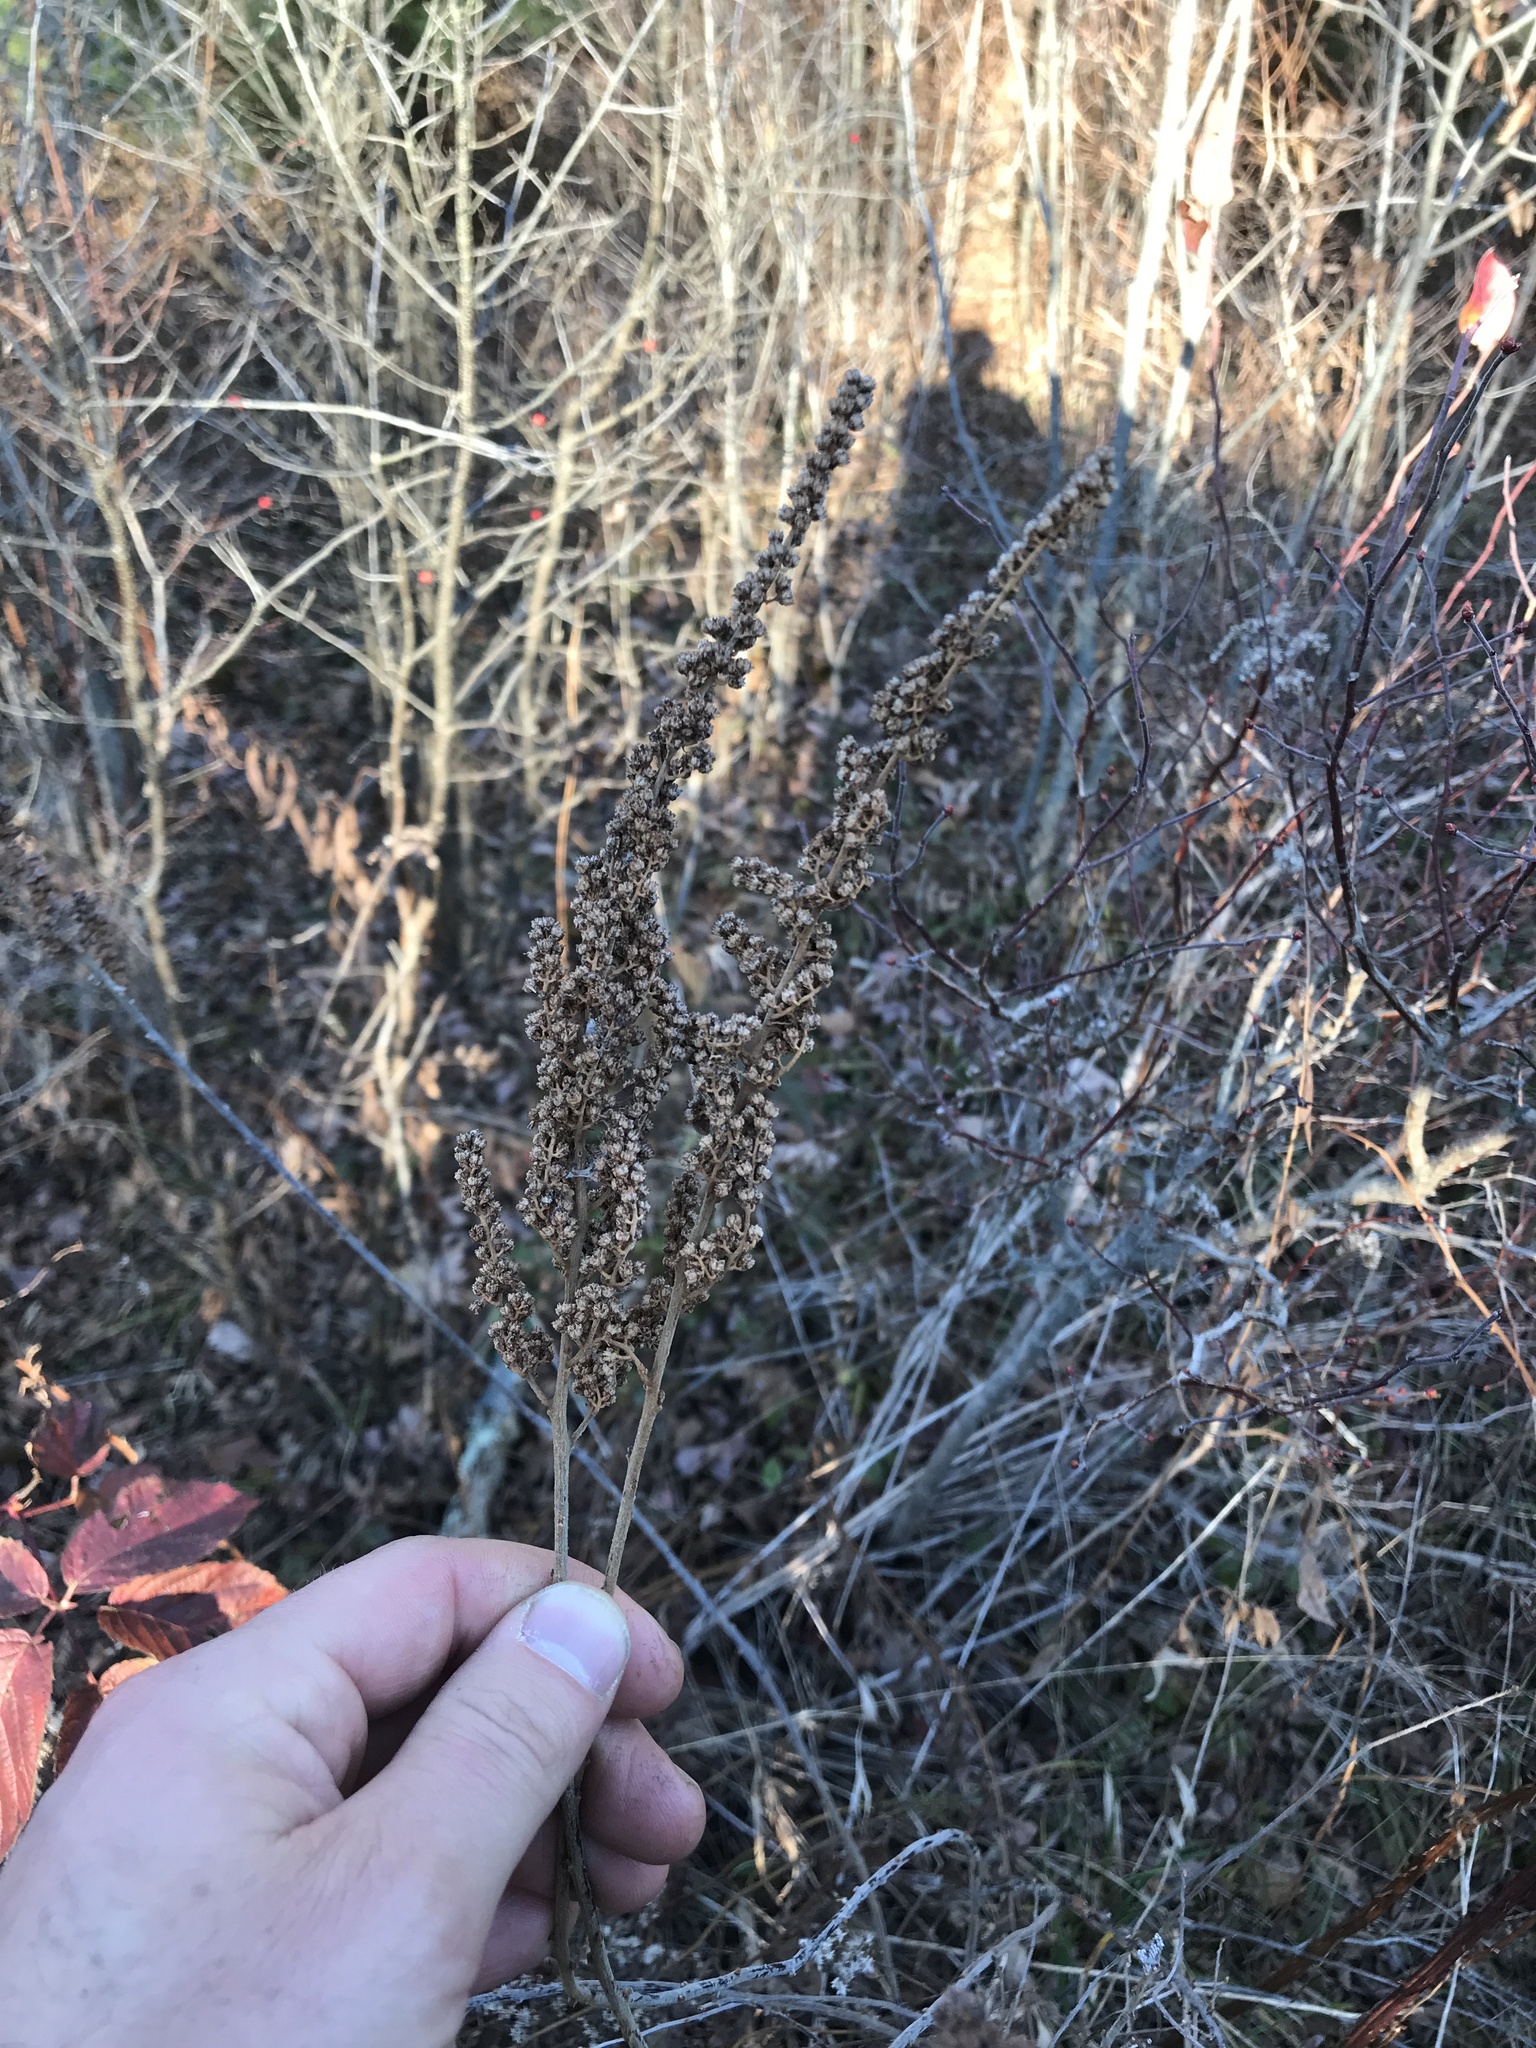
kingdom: Plantae
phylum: Tracheophyta
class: Magnoliopsida
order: Rosales
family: Rosaceae
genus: Spiraea
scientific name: Spiraea tomentosa
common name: Hardhack
